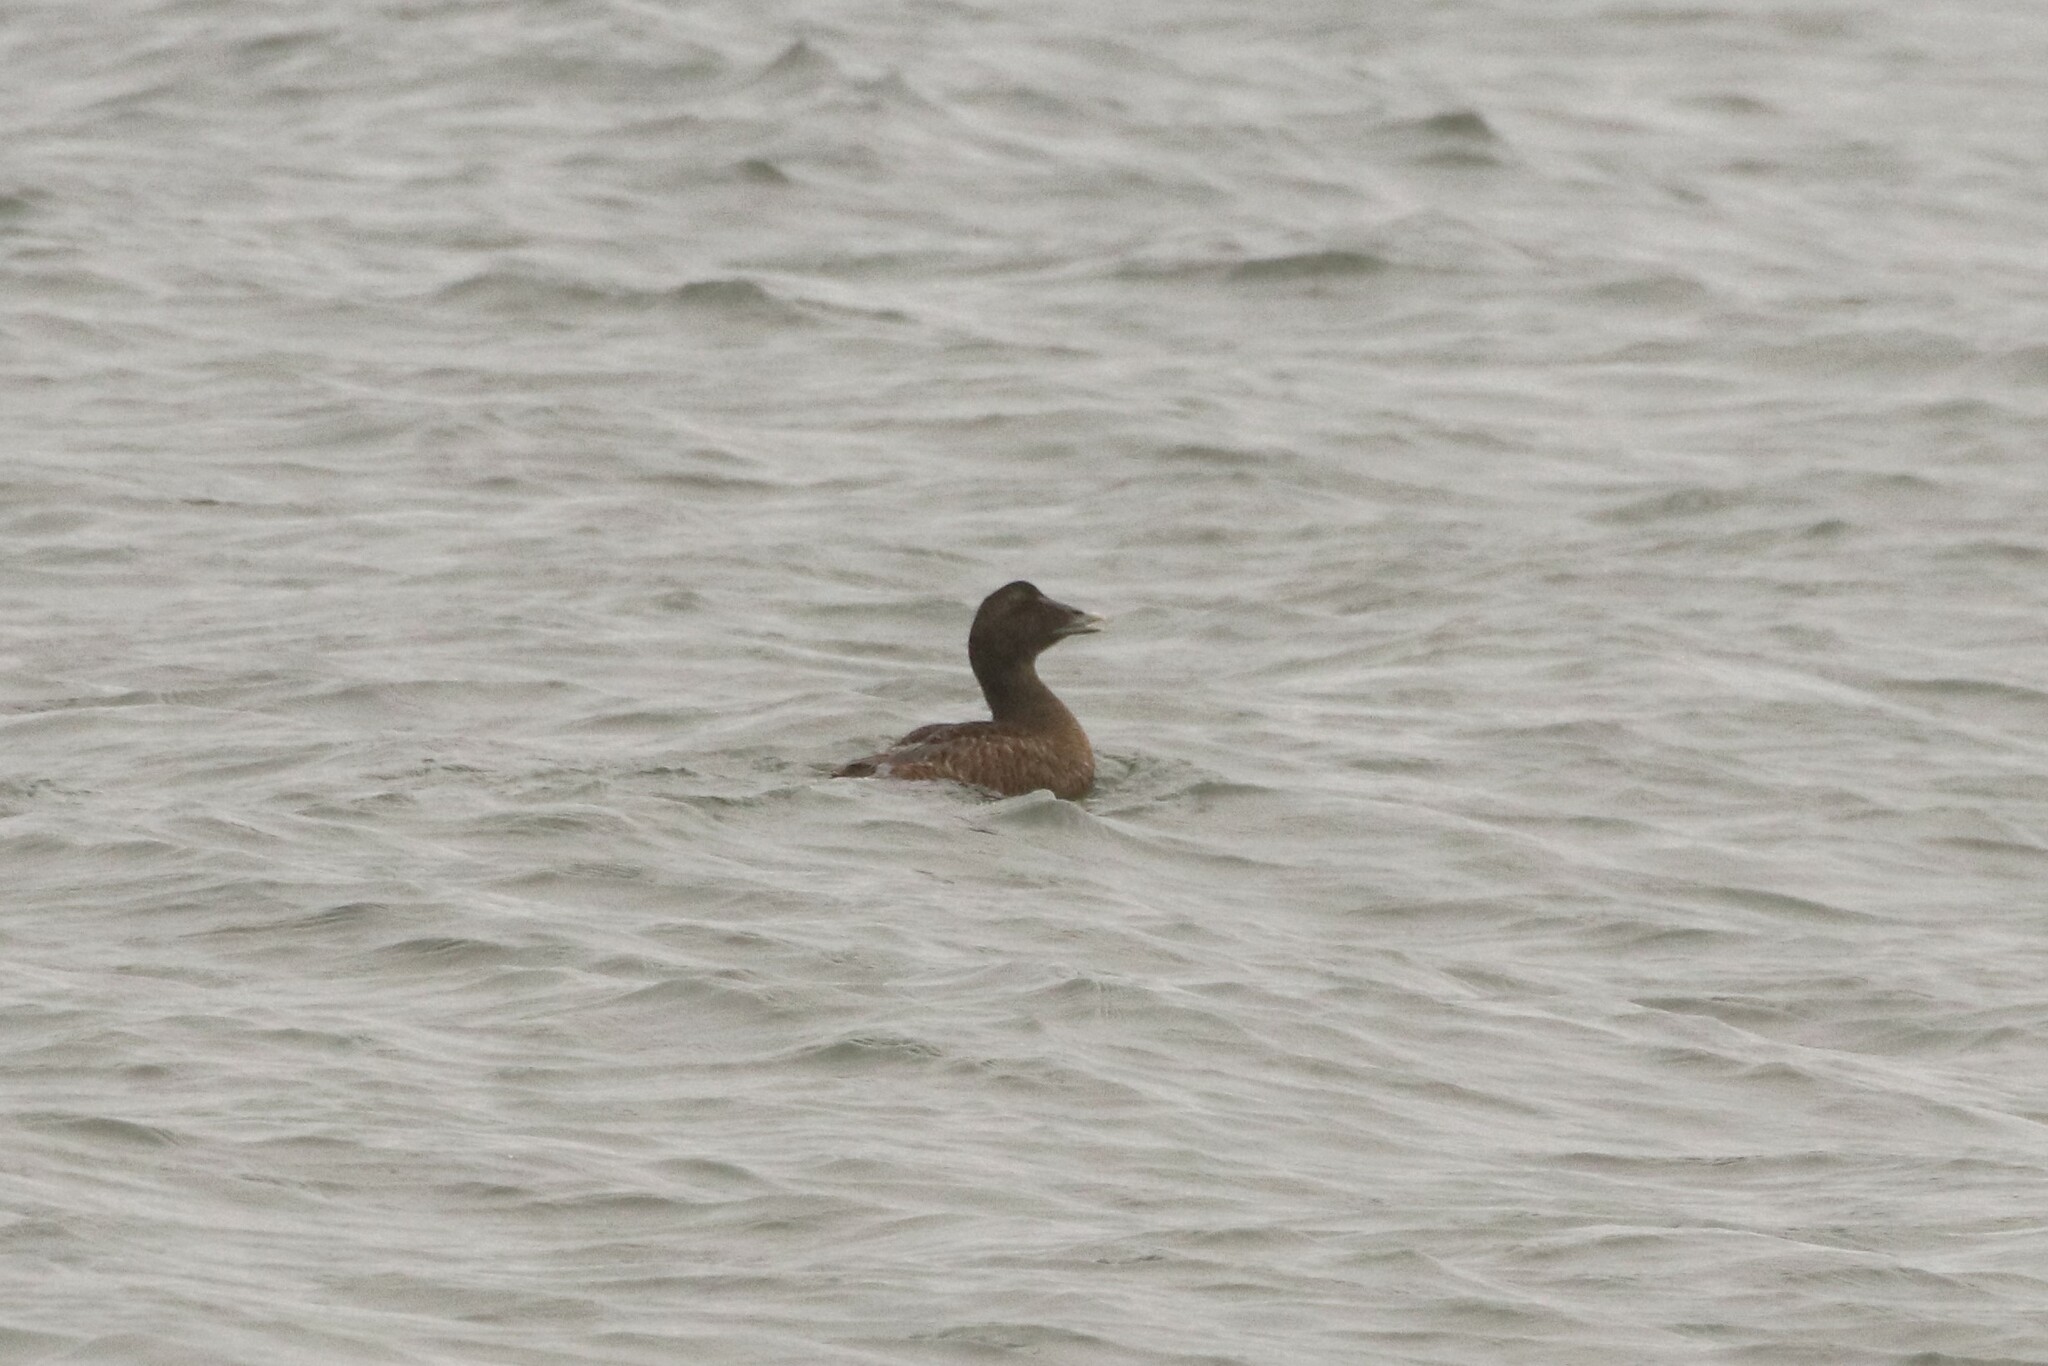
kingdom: Animalia
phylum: Chordata
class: Aves
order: Anseriformes
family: Anatidae
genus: Somateria
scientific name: Somateria mollissima
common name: Common eider
